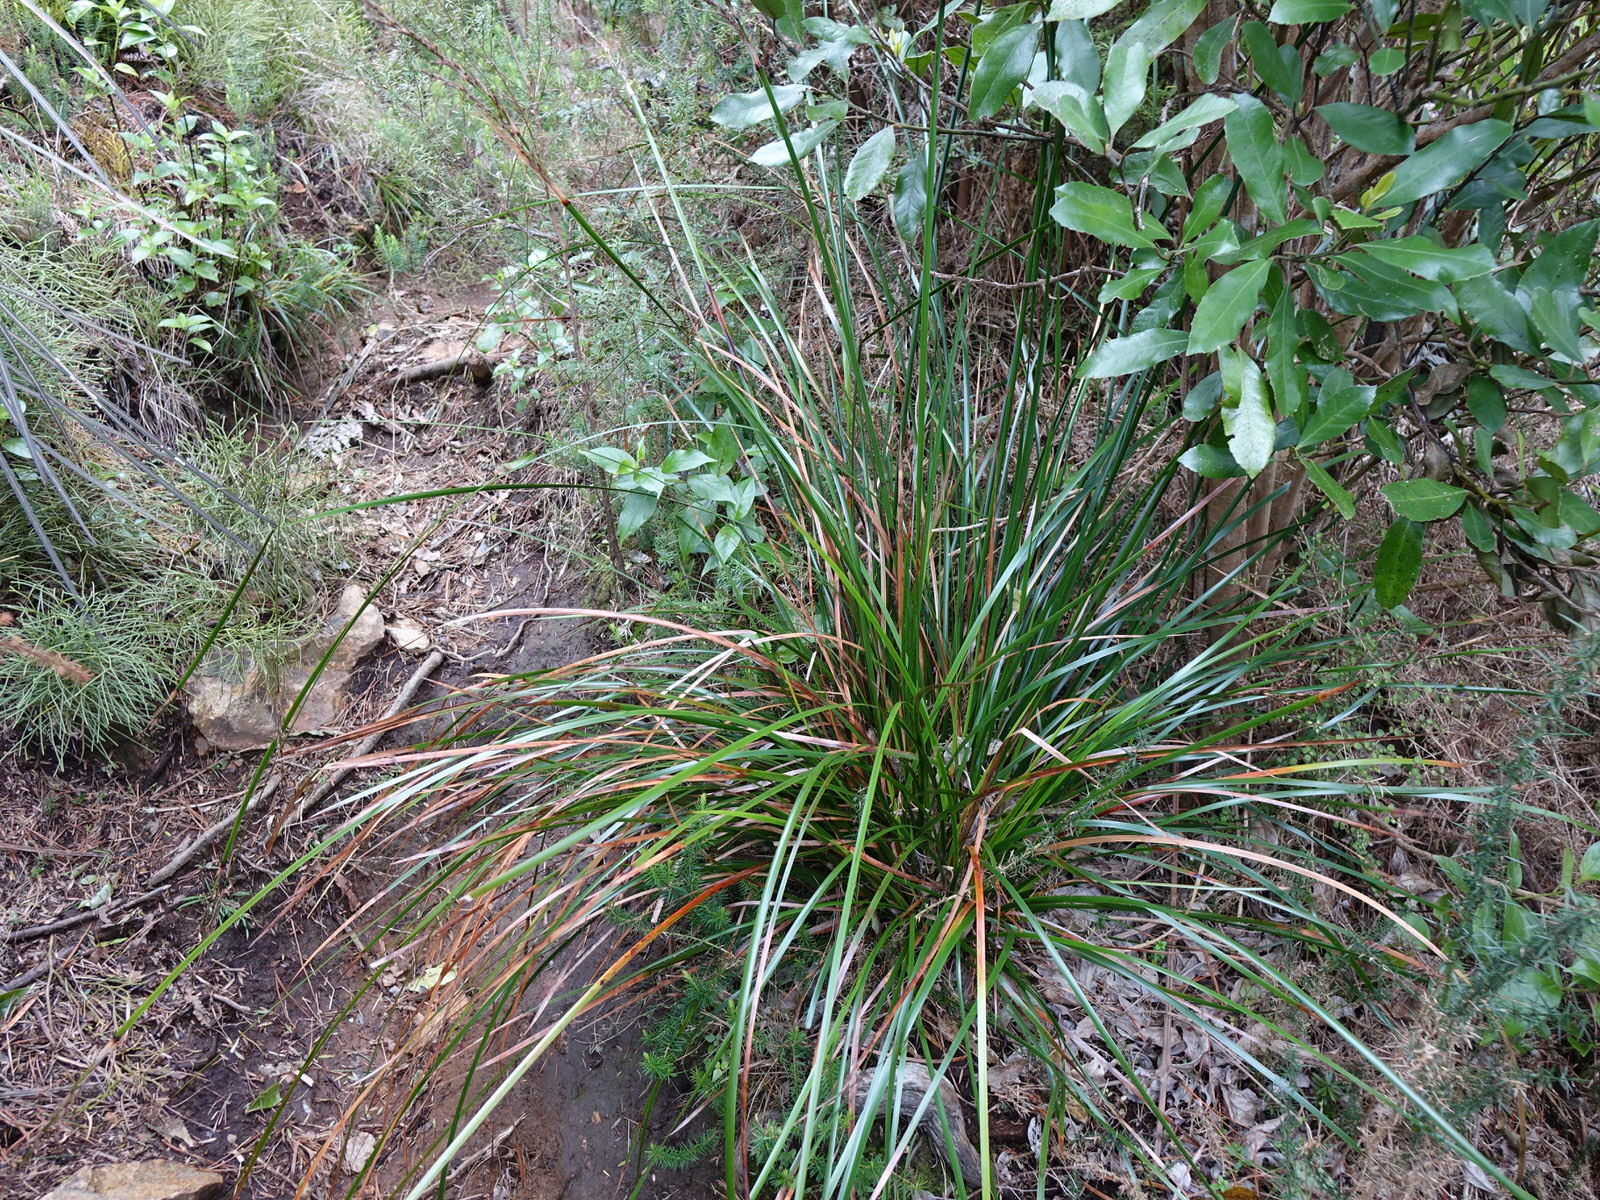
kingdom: Plantae
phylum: Tracheophyta
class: Liliopsida
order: Poales
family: Cyperaceae
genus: Lepidosperma
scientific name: Lepidosperma laterale
